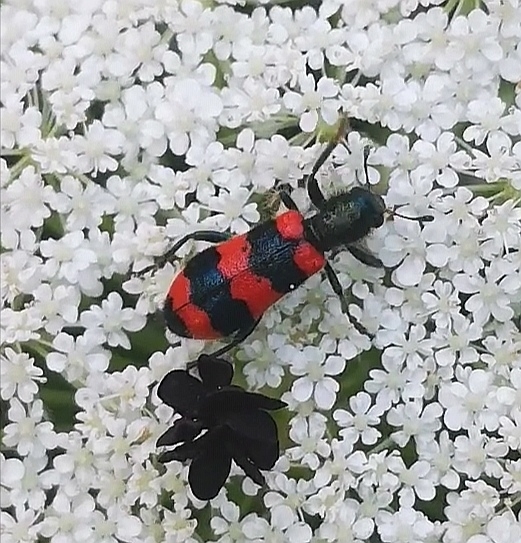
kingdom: Animalia
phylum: Arthropoda
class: Insecta
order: Coleoptera
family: Cleridae
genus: Trichodes
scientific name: Trichodes apiarius
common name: Bee-eating beetle
